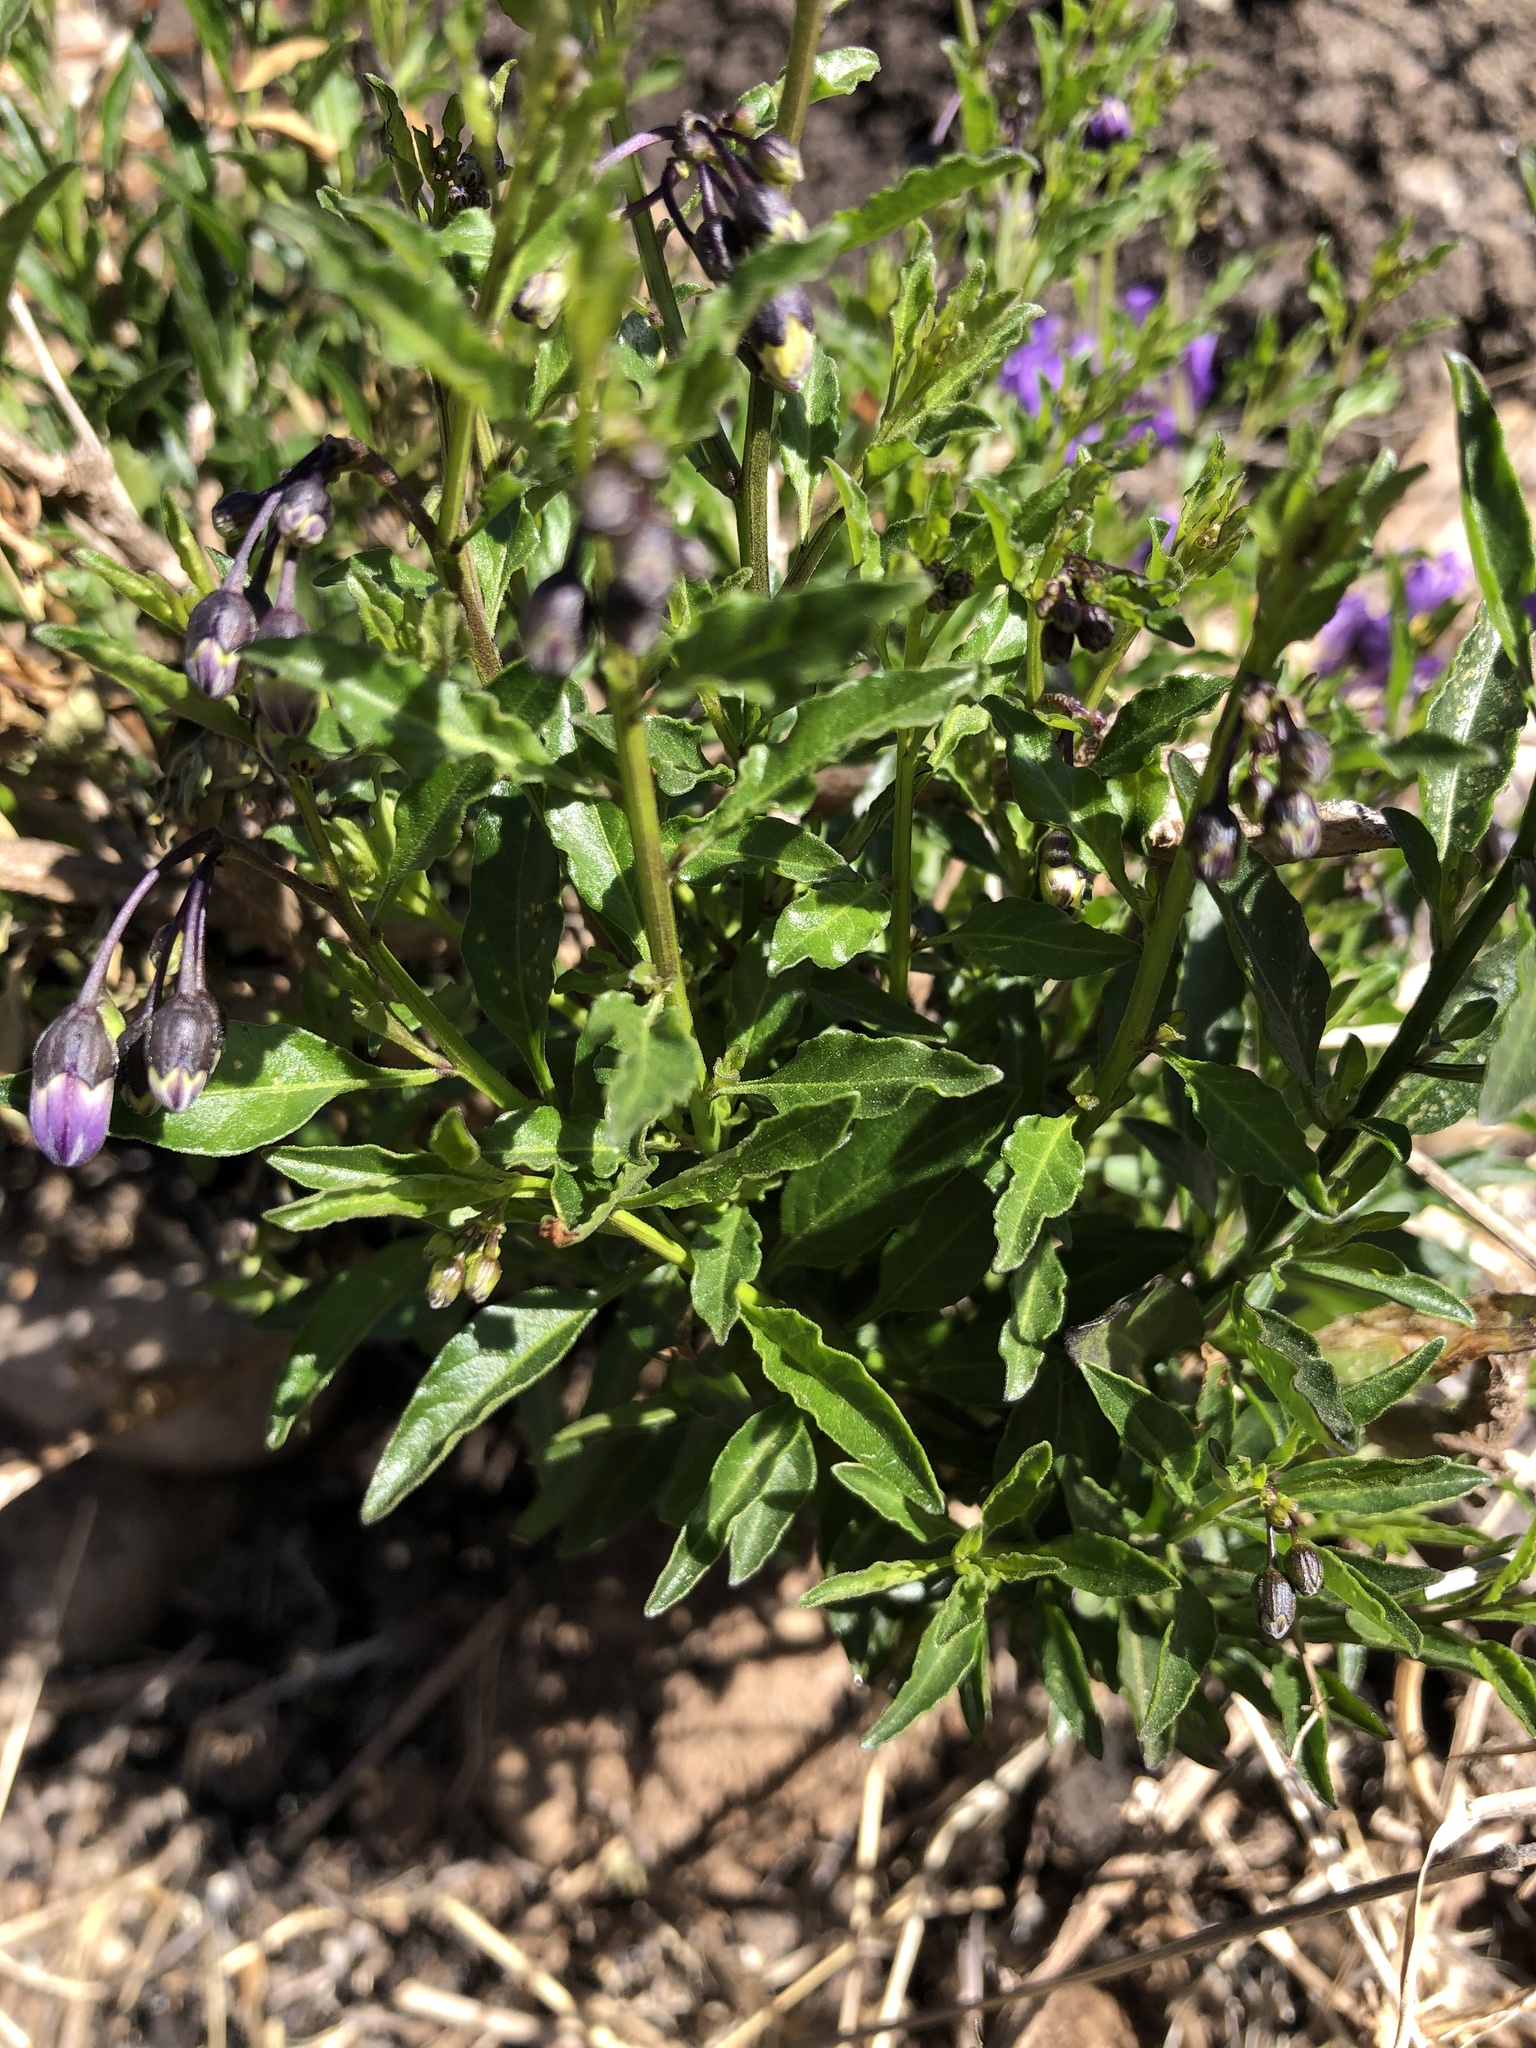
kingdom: Plantae
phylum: Tracheophyta
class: Magnoliopsida
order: Solanales
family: Solanaceae
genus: Solanum
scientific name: Solanum umbelliferum
